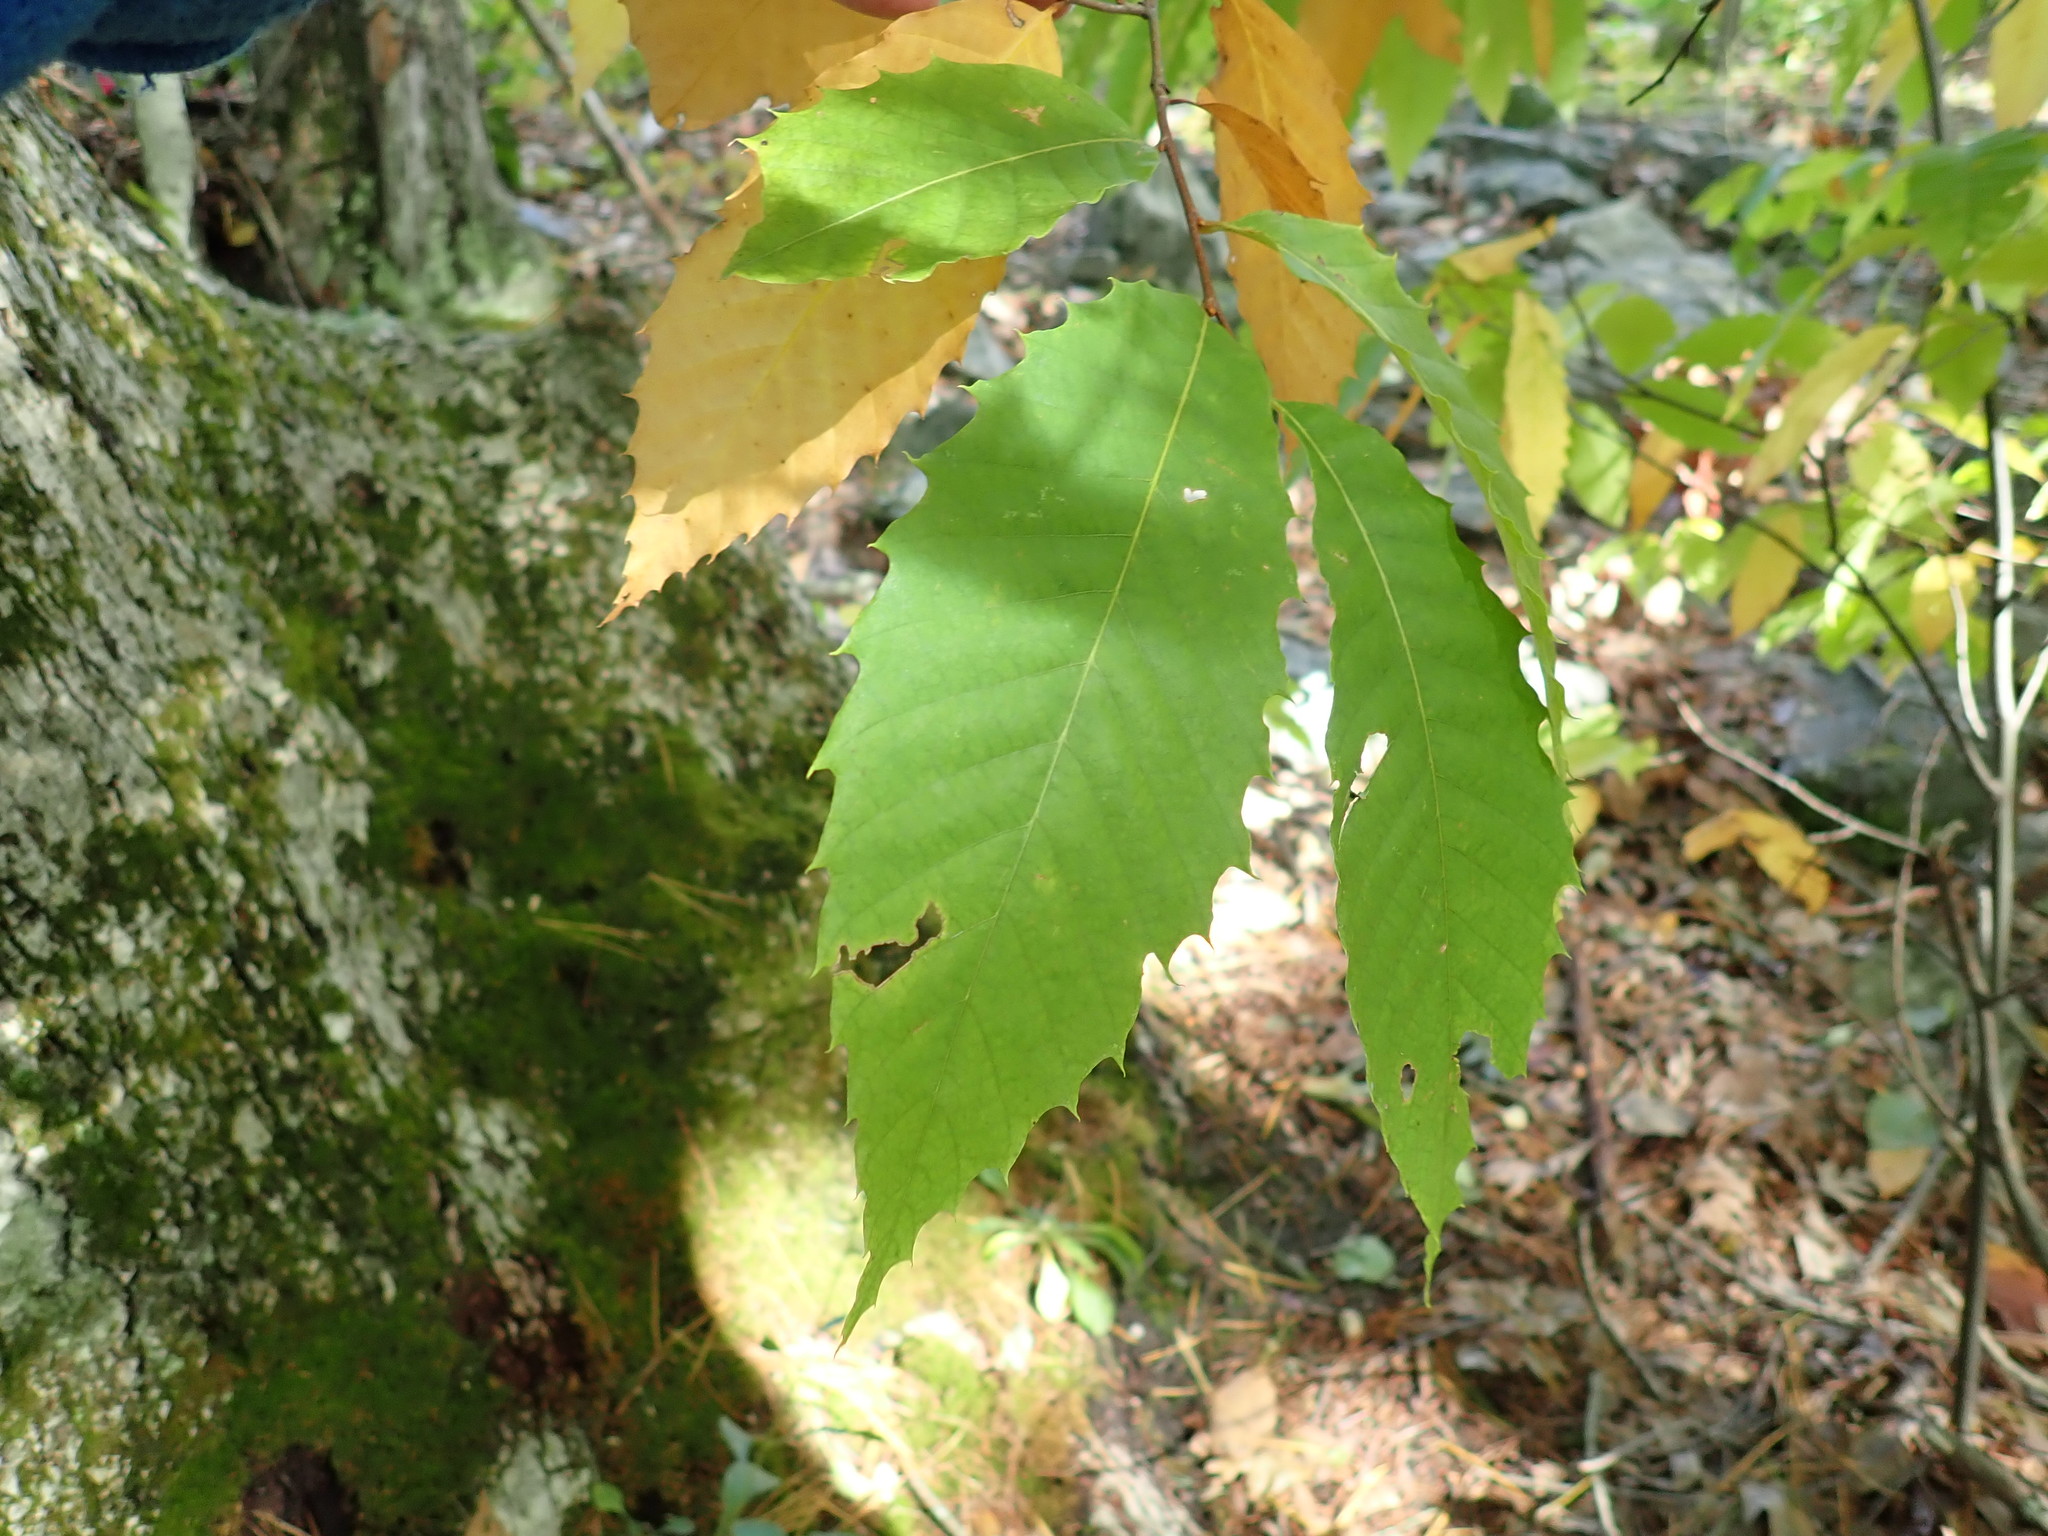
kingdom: Plantae
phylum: Tracheophyta
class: Magnoliopsida
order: Fagales
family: Fagaceae
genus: Castanea
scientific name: Castanea dentata
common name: American chestnut
